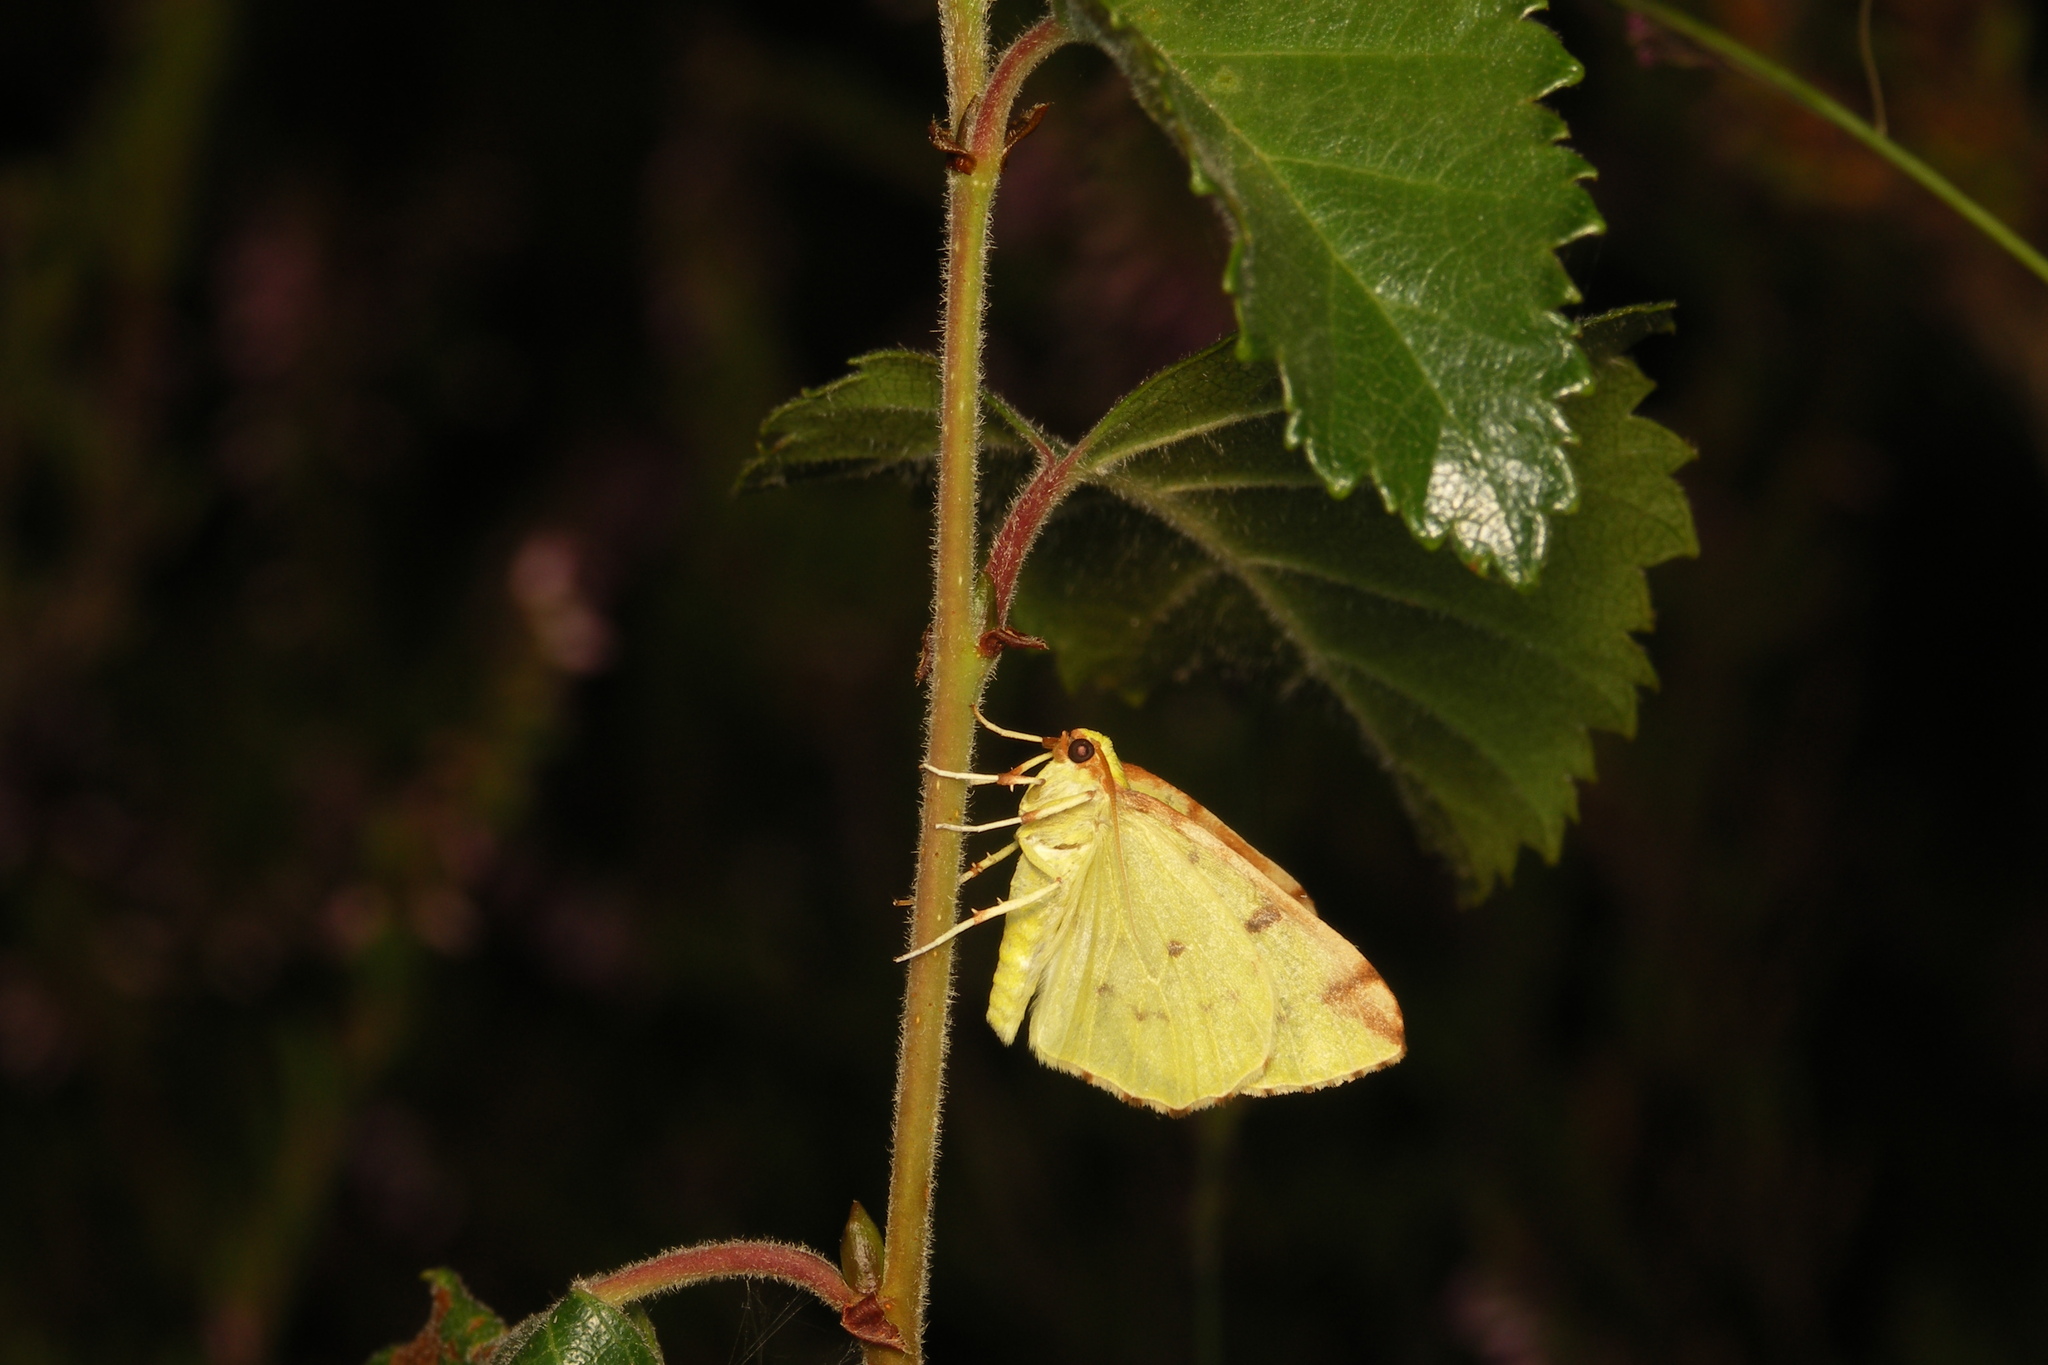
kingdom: Animalia
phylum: Arthropoda
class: Insecta
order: Lepidoptera
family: Geometridae
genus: Opisthograptis
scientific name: Opisthograptis luteolata
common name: Brimstone moth
